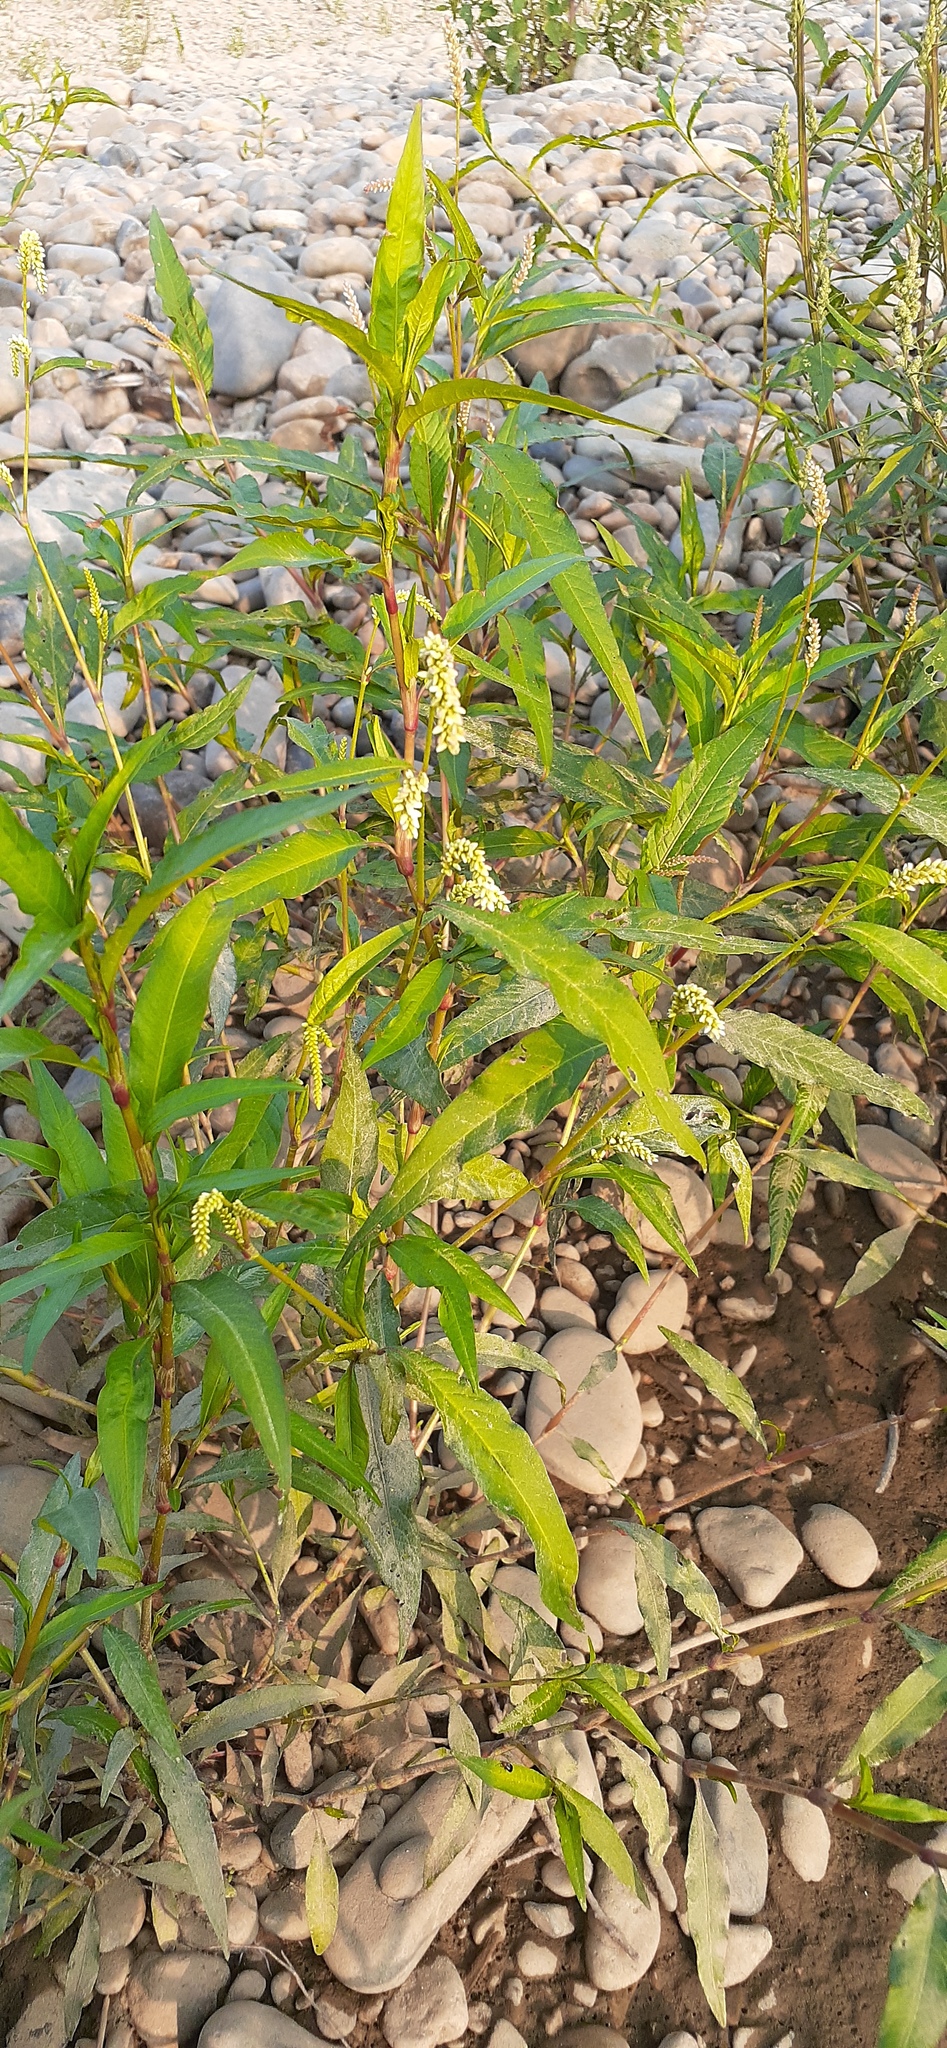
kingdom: Plantae
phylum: Tracheophyta
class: Magnoliopsida
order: Caryophyllales
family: Polygonaceae
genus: Persicaria
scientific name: Persicaria lapathifolia
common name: Curlytop knotweed
